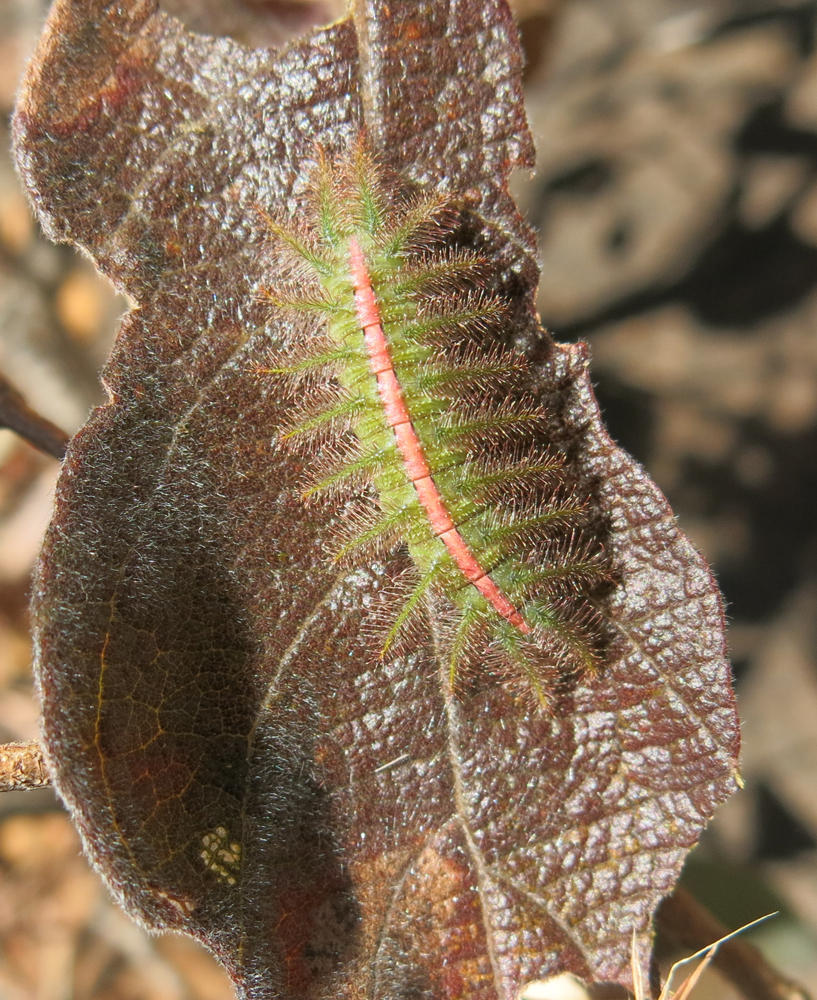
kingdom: Plantae
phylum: Tracheophyta
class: Magnoliopsida
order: Myrtales
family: Combretaceae
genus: Combretum
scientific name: Combretum molle
